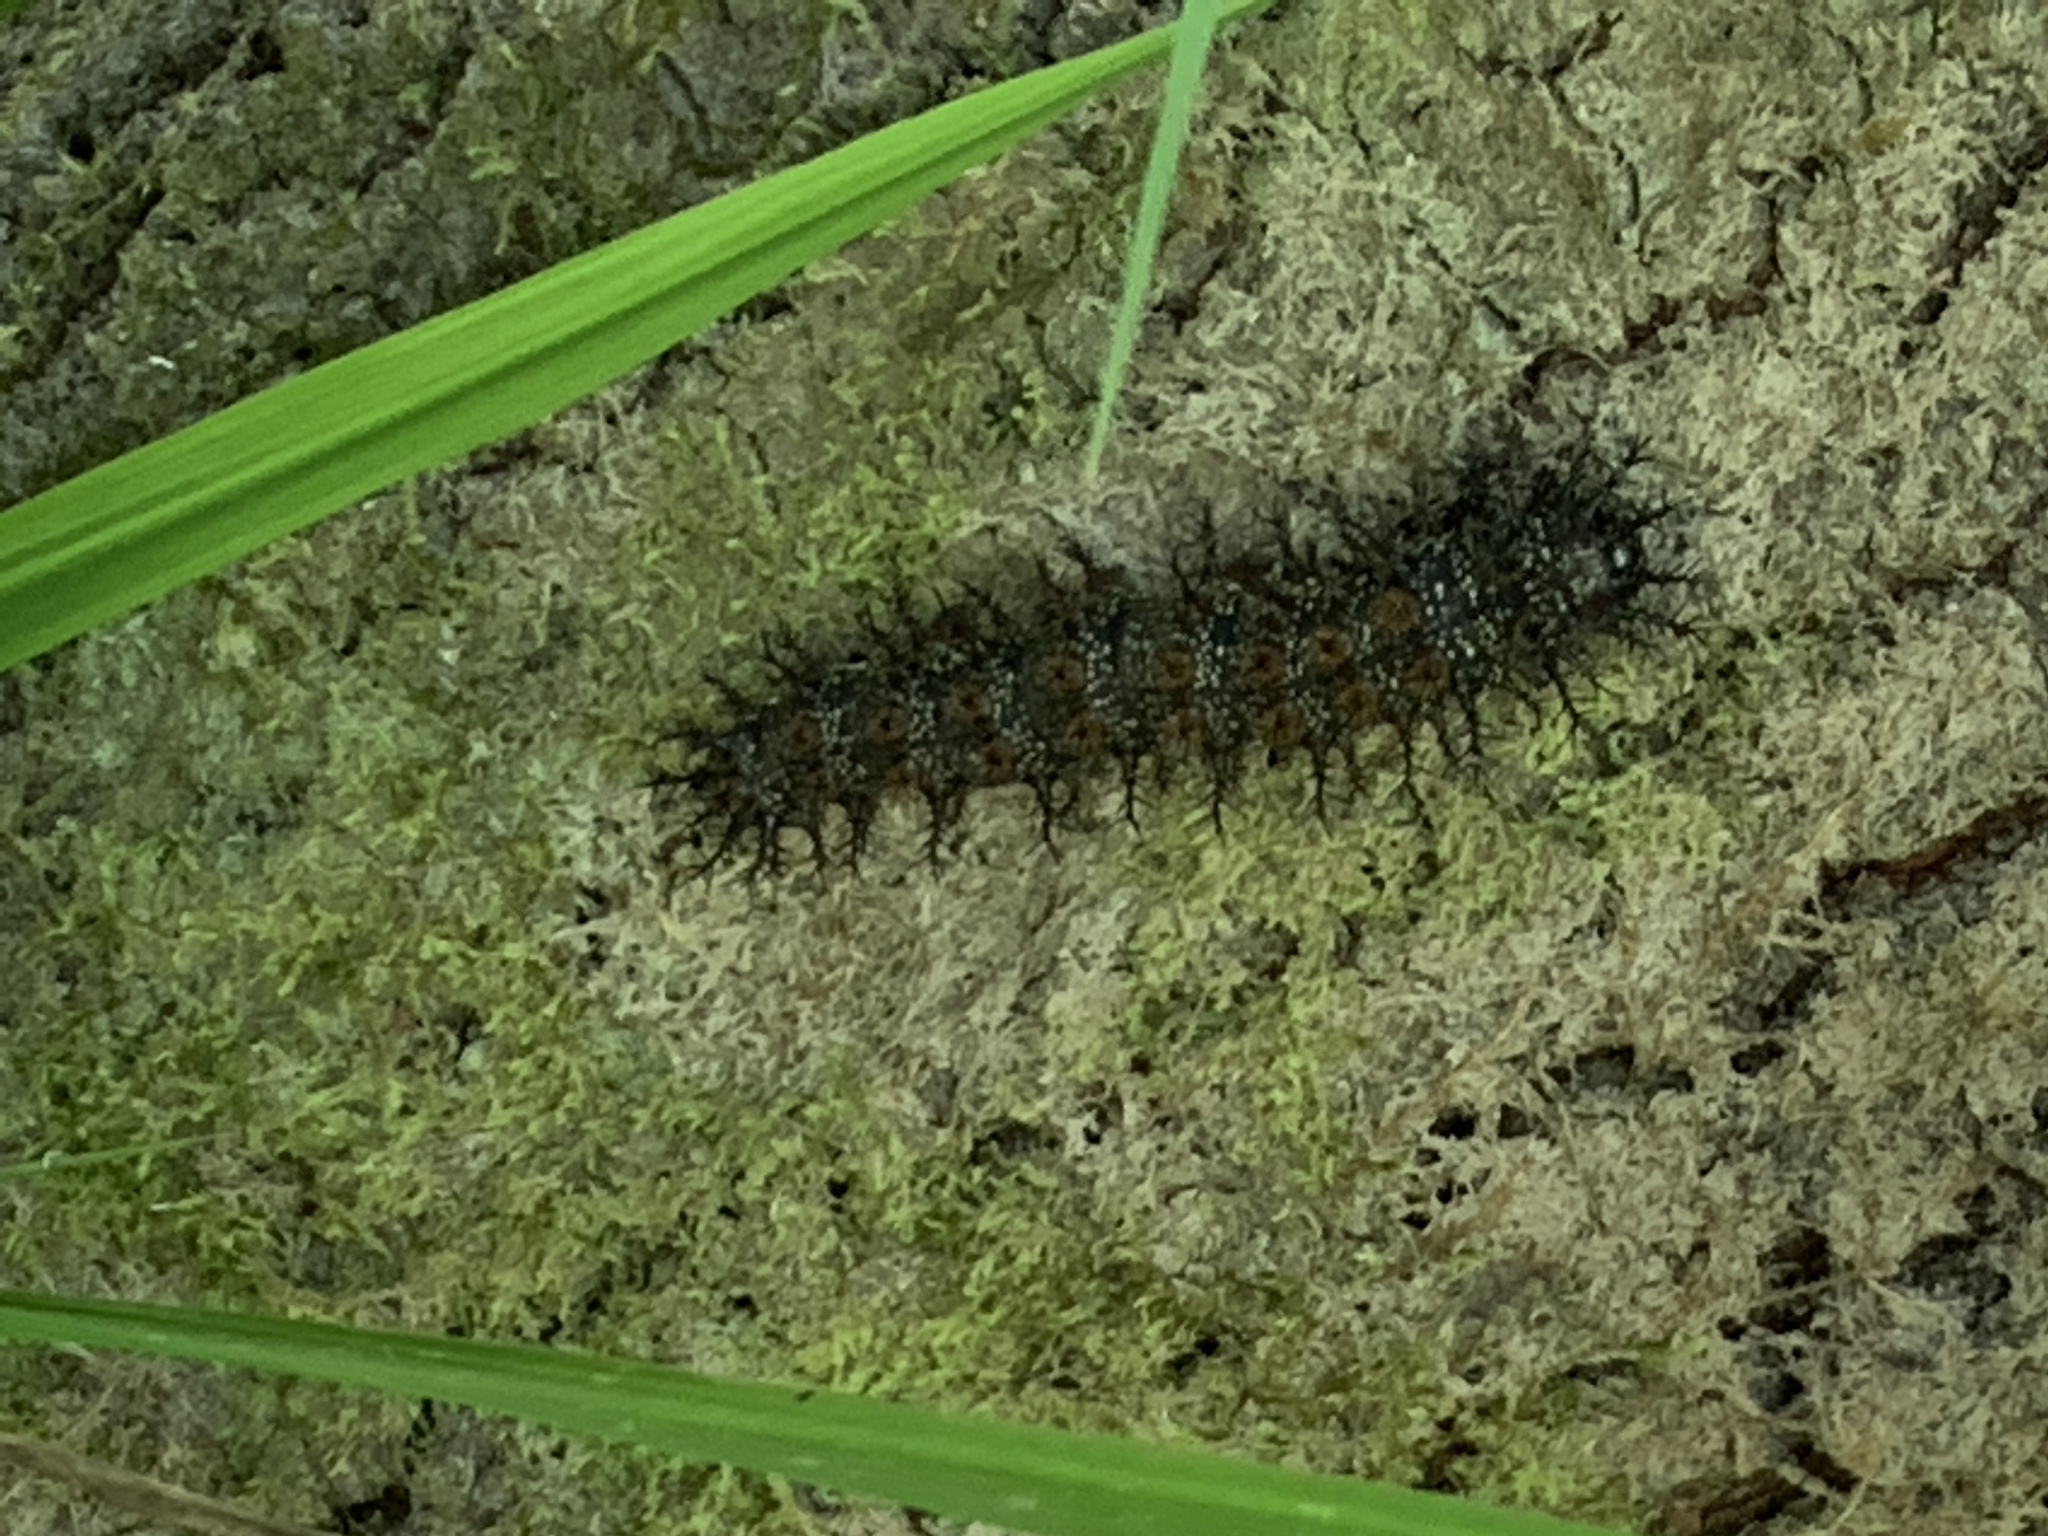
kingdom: Animalia
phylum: Arthropoda
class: Insecta
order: Lepidoptera
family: Saturniidae
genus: Hemileuca
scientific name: Hemileuca maia
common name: Eastern buckmoth
